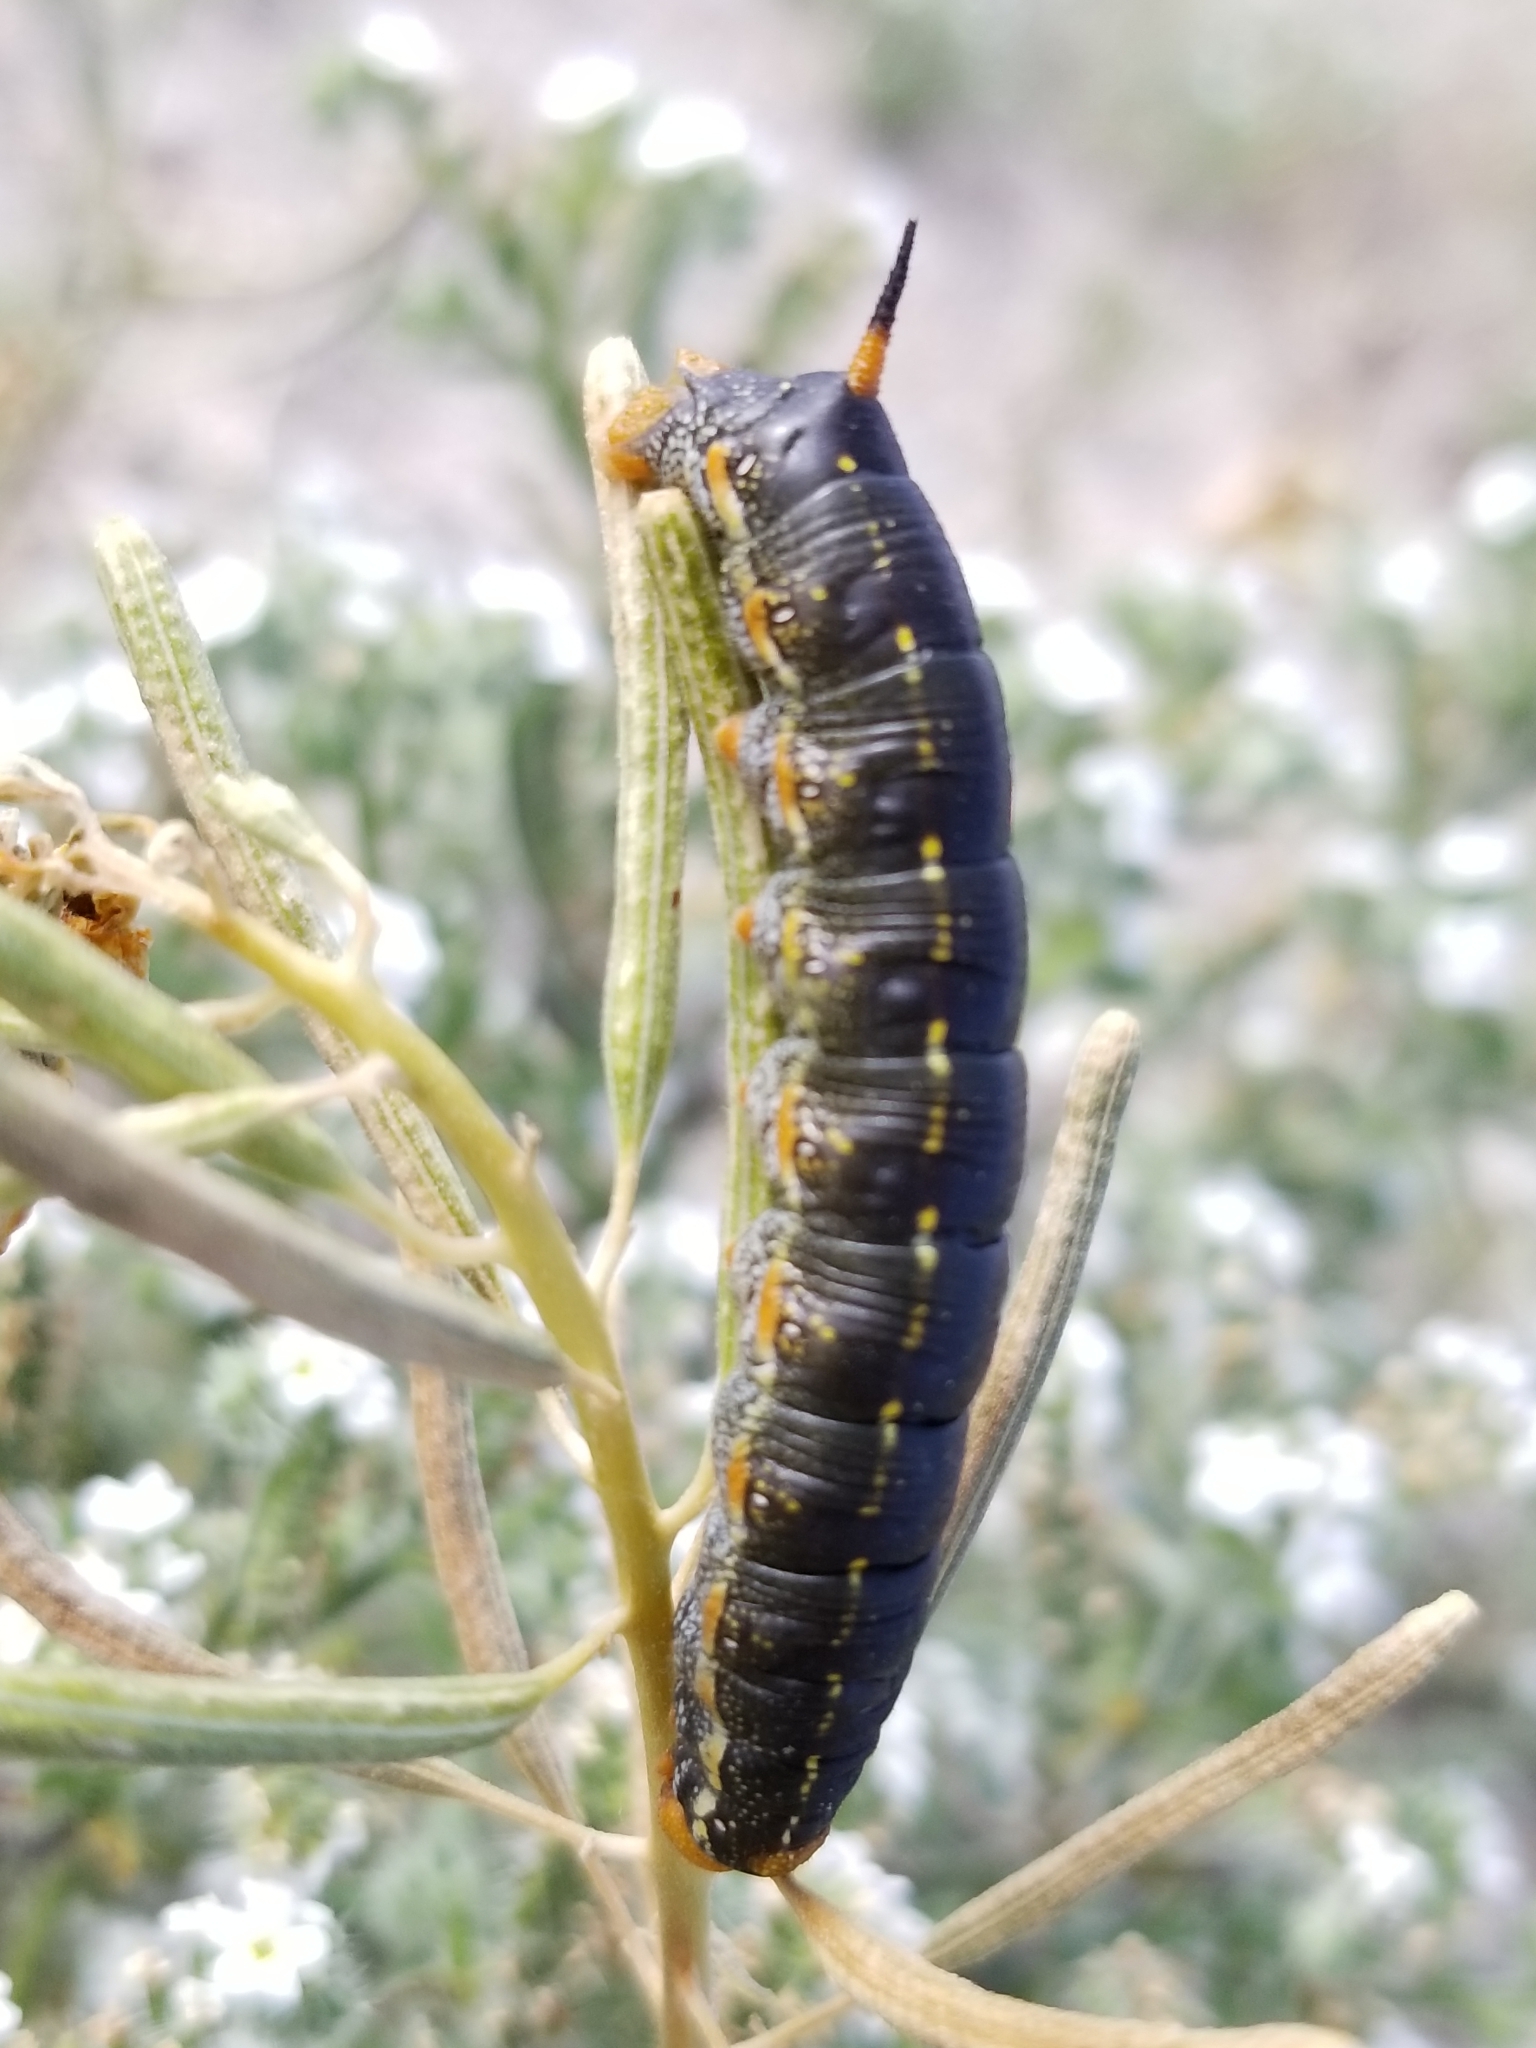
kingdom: Animalia
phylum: Arthropoda
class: Insecta
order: Lepidoptera
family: Sphingidae
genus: Hyles
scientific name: Hyles lineata
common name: White-lined sphinx
